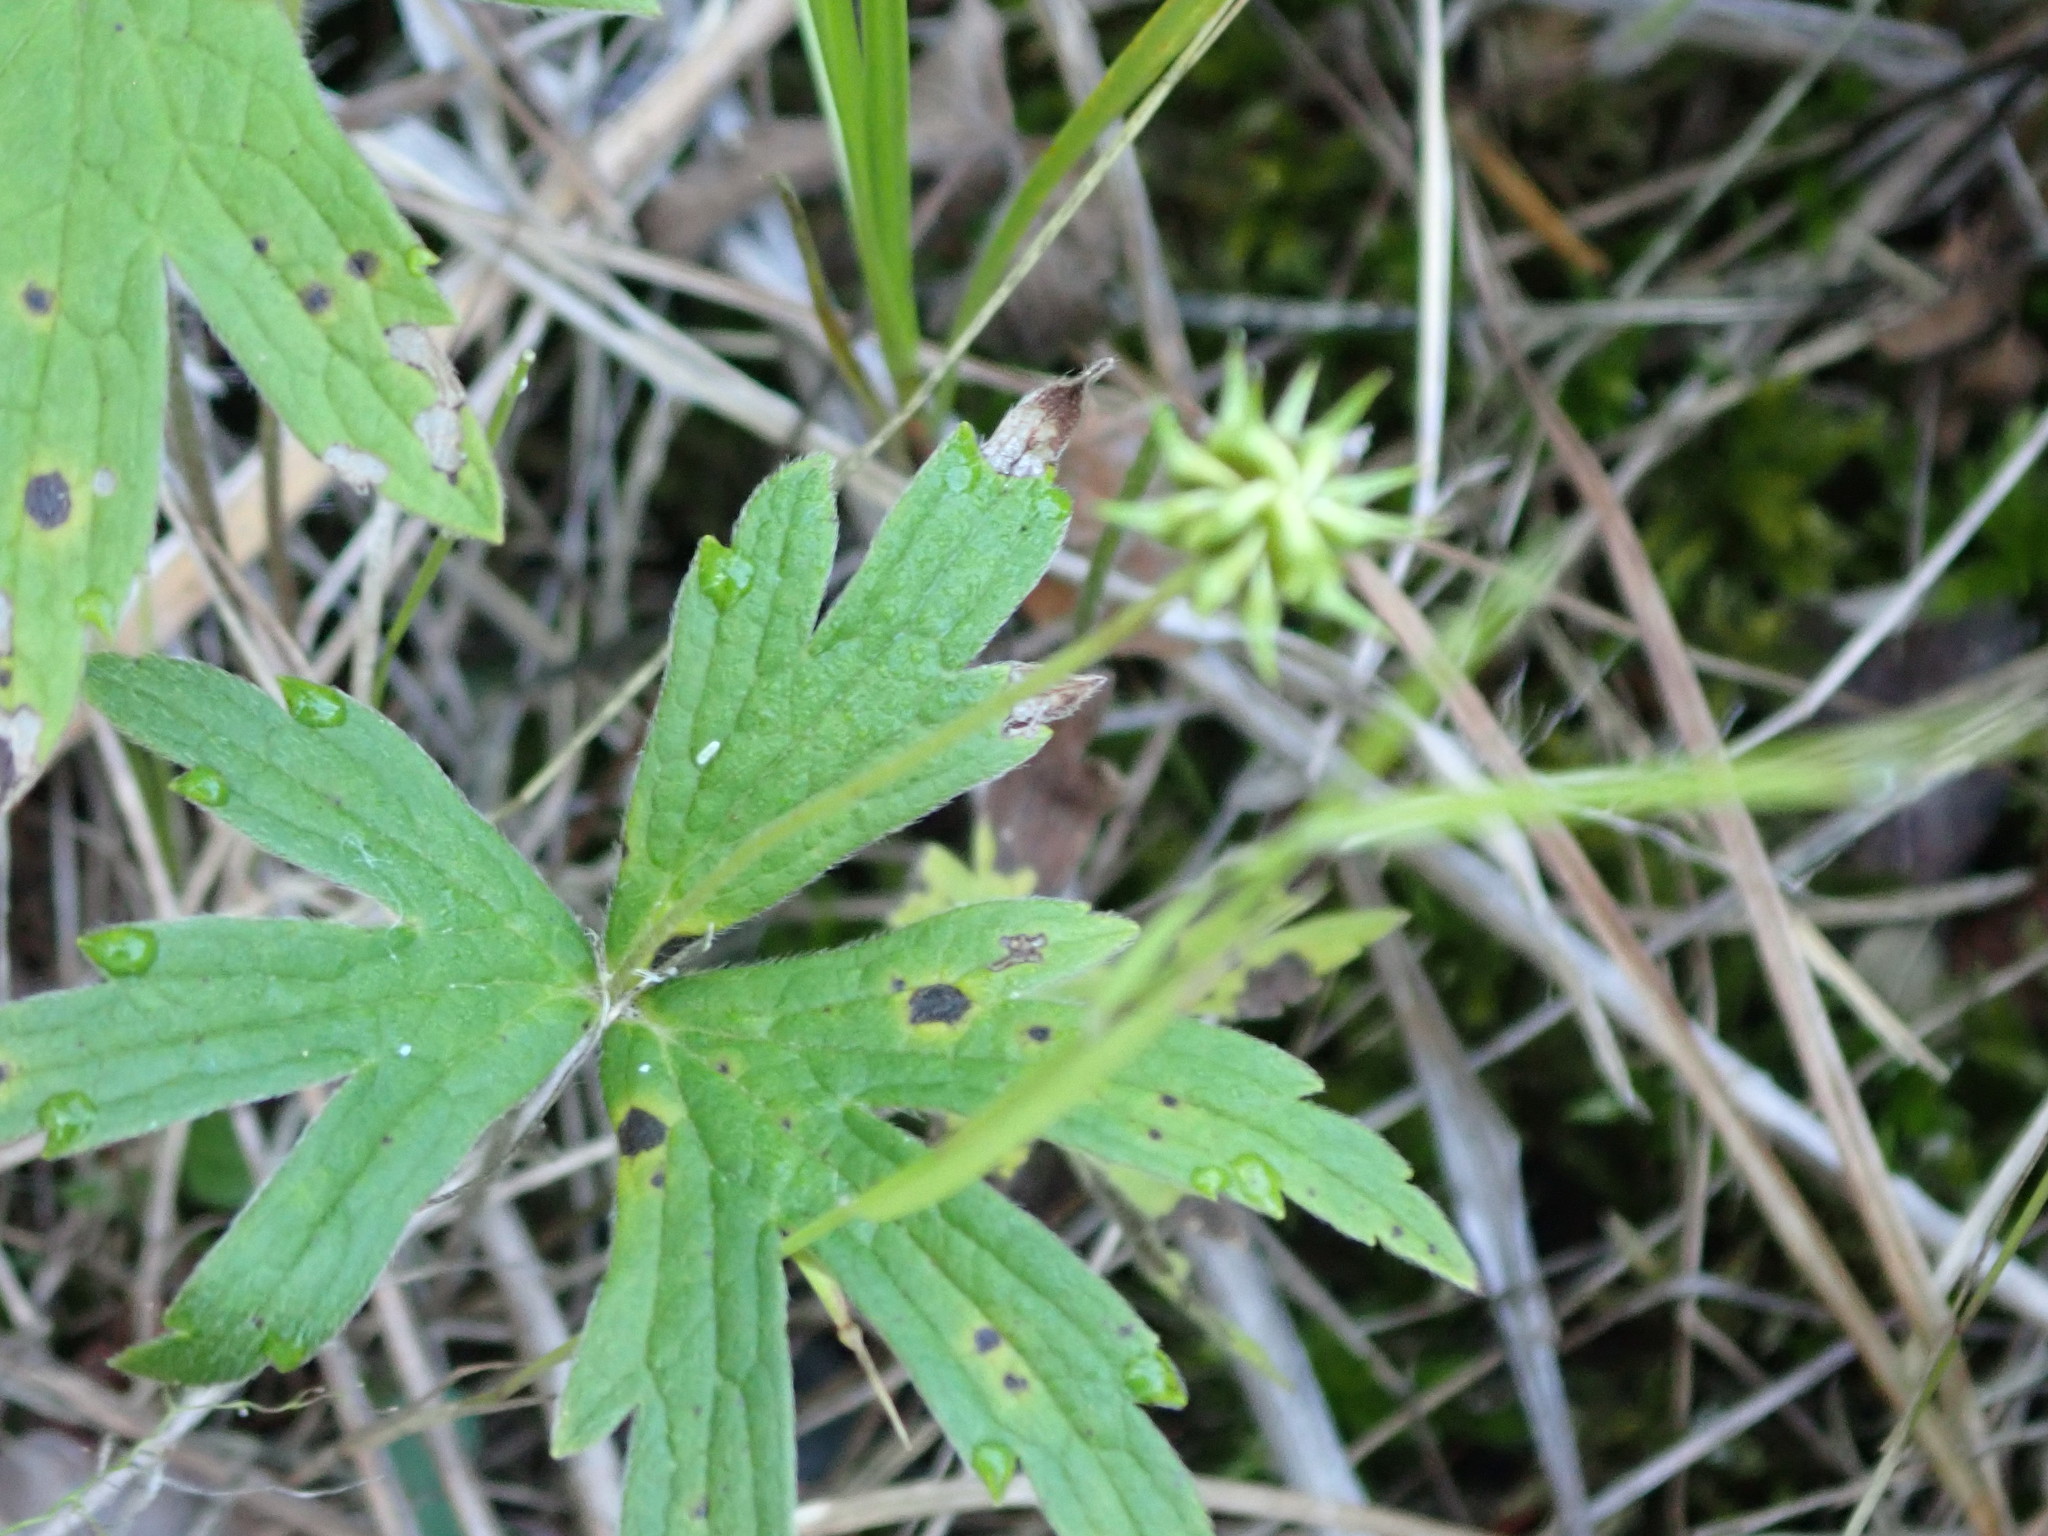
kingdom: Plantae
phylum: Tracheophyta
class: Magnoliopsida
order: Ranunculales
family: Ranunculaceae
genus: Anemonastrum
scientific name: Anemonastrum canadense
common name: Canada anemone
